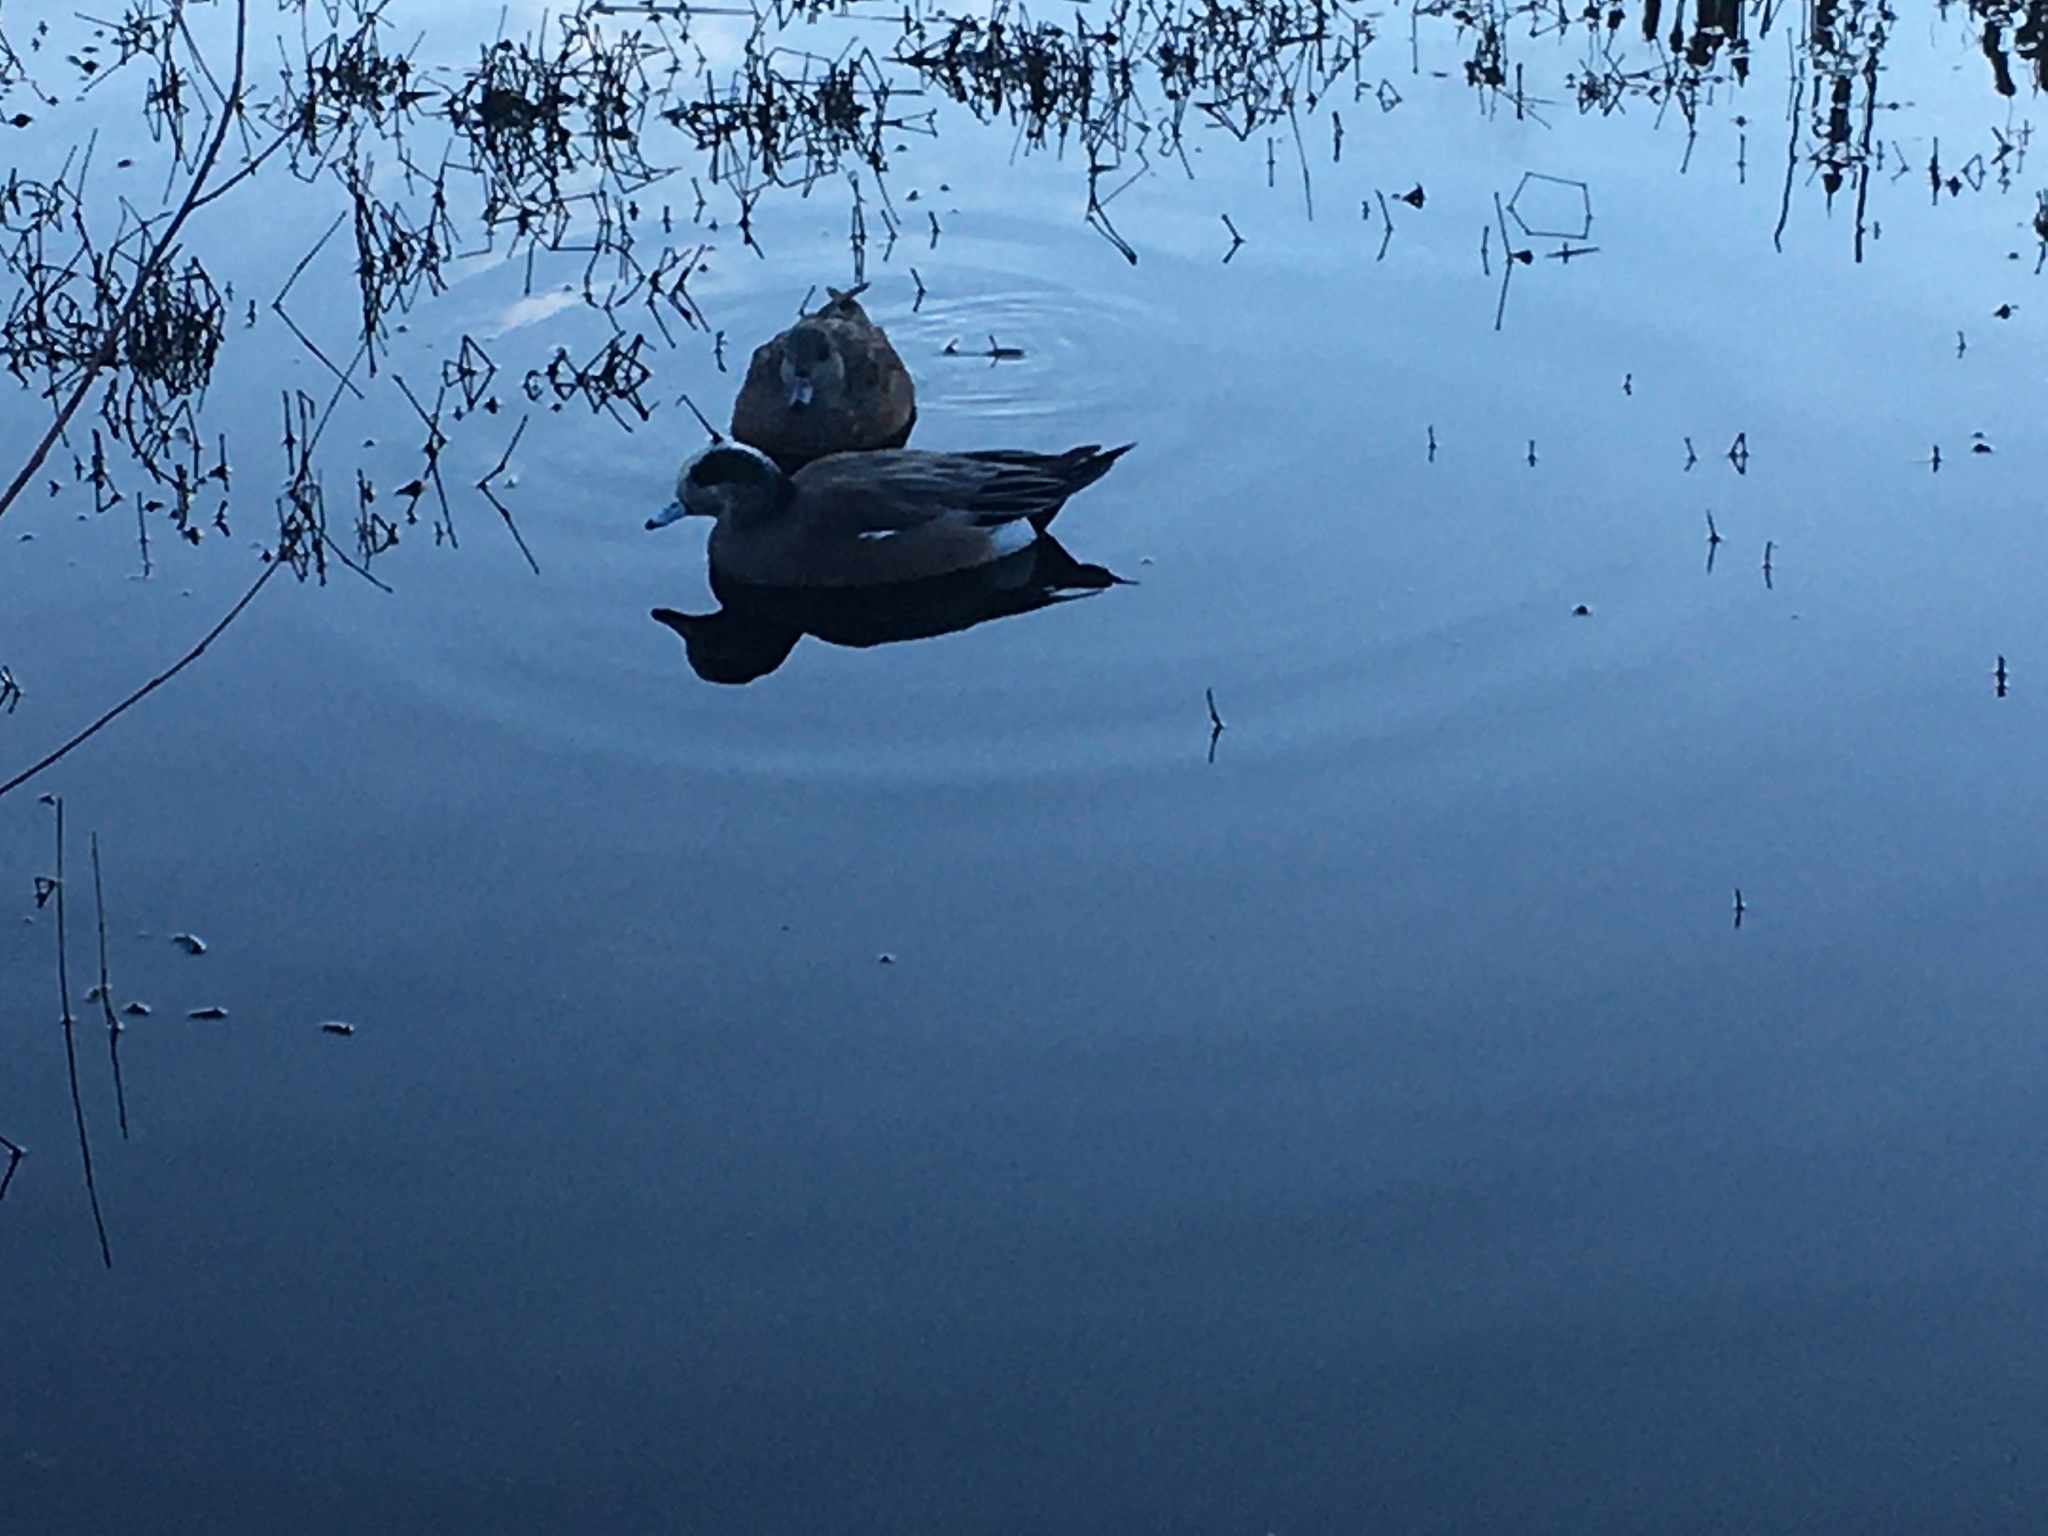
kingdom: Animalia
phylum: Chordata
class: Aves
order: Anseriformes
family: Anatidae
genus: Mareca
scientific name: Mareca americana
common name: American wigeon
